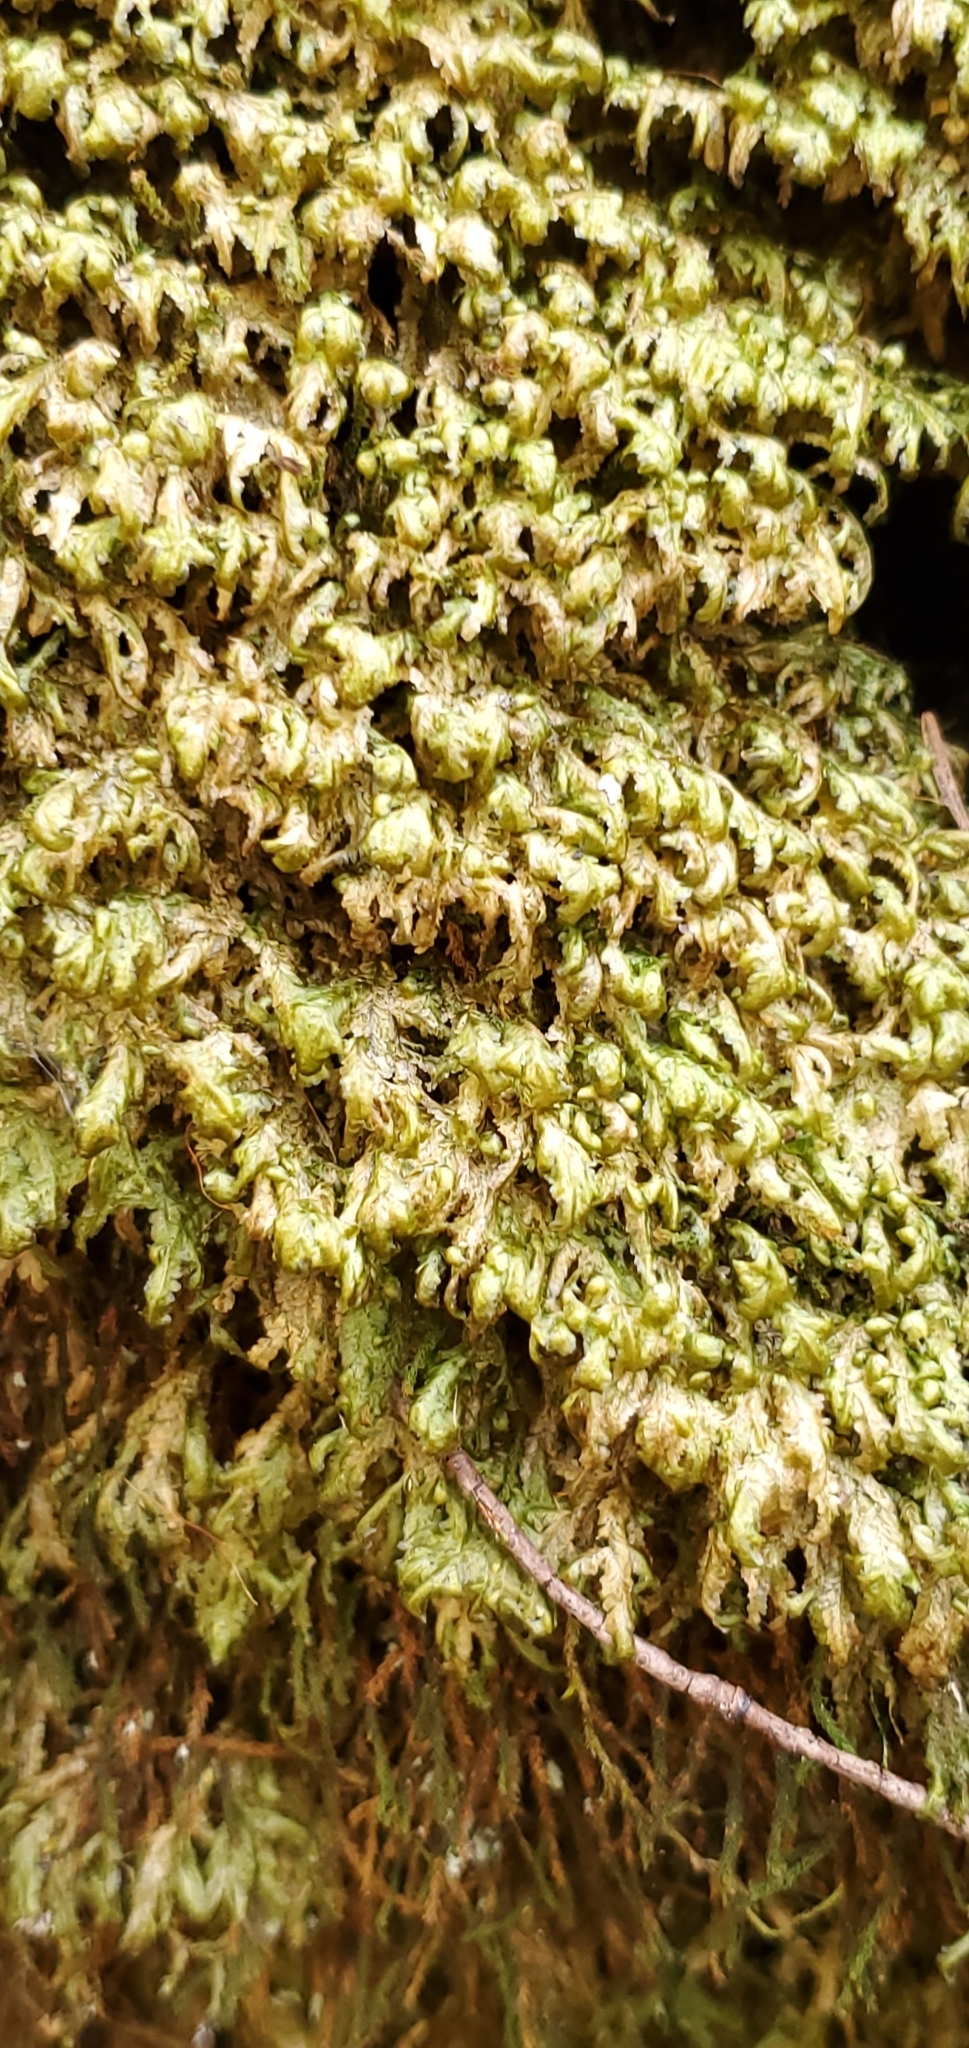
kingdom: Plantae
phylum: Bryophyta
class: Bryopsida
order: Hypnales
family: Neckeraceae
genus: Homalia
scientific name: Homalia trichomanoides
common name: Lime homalia moss
